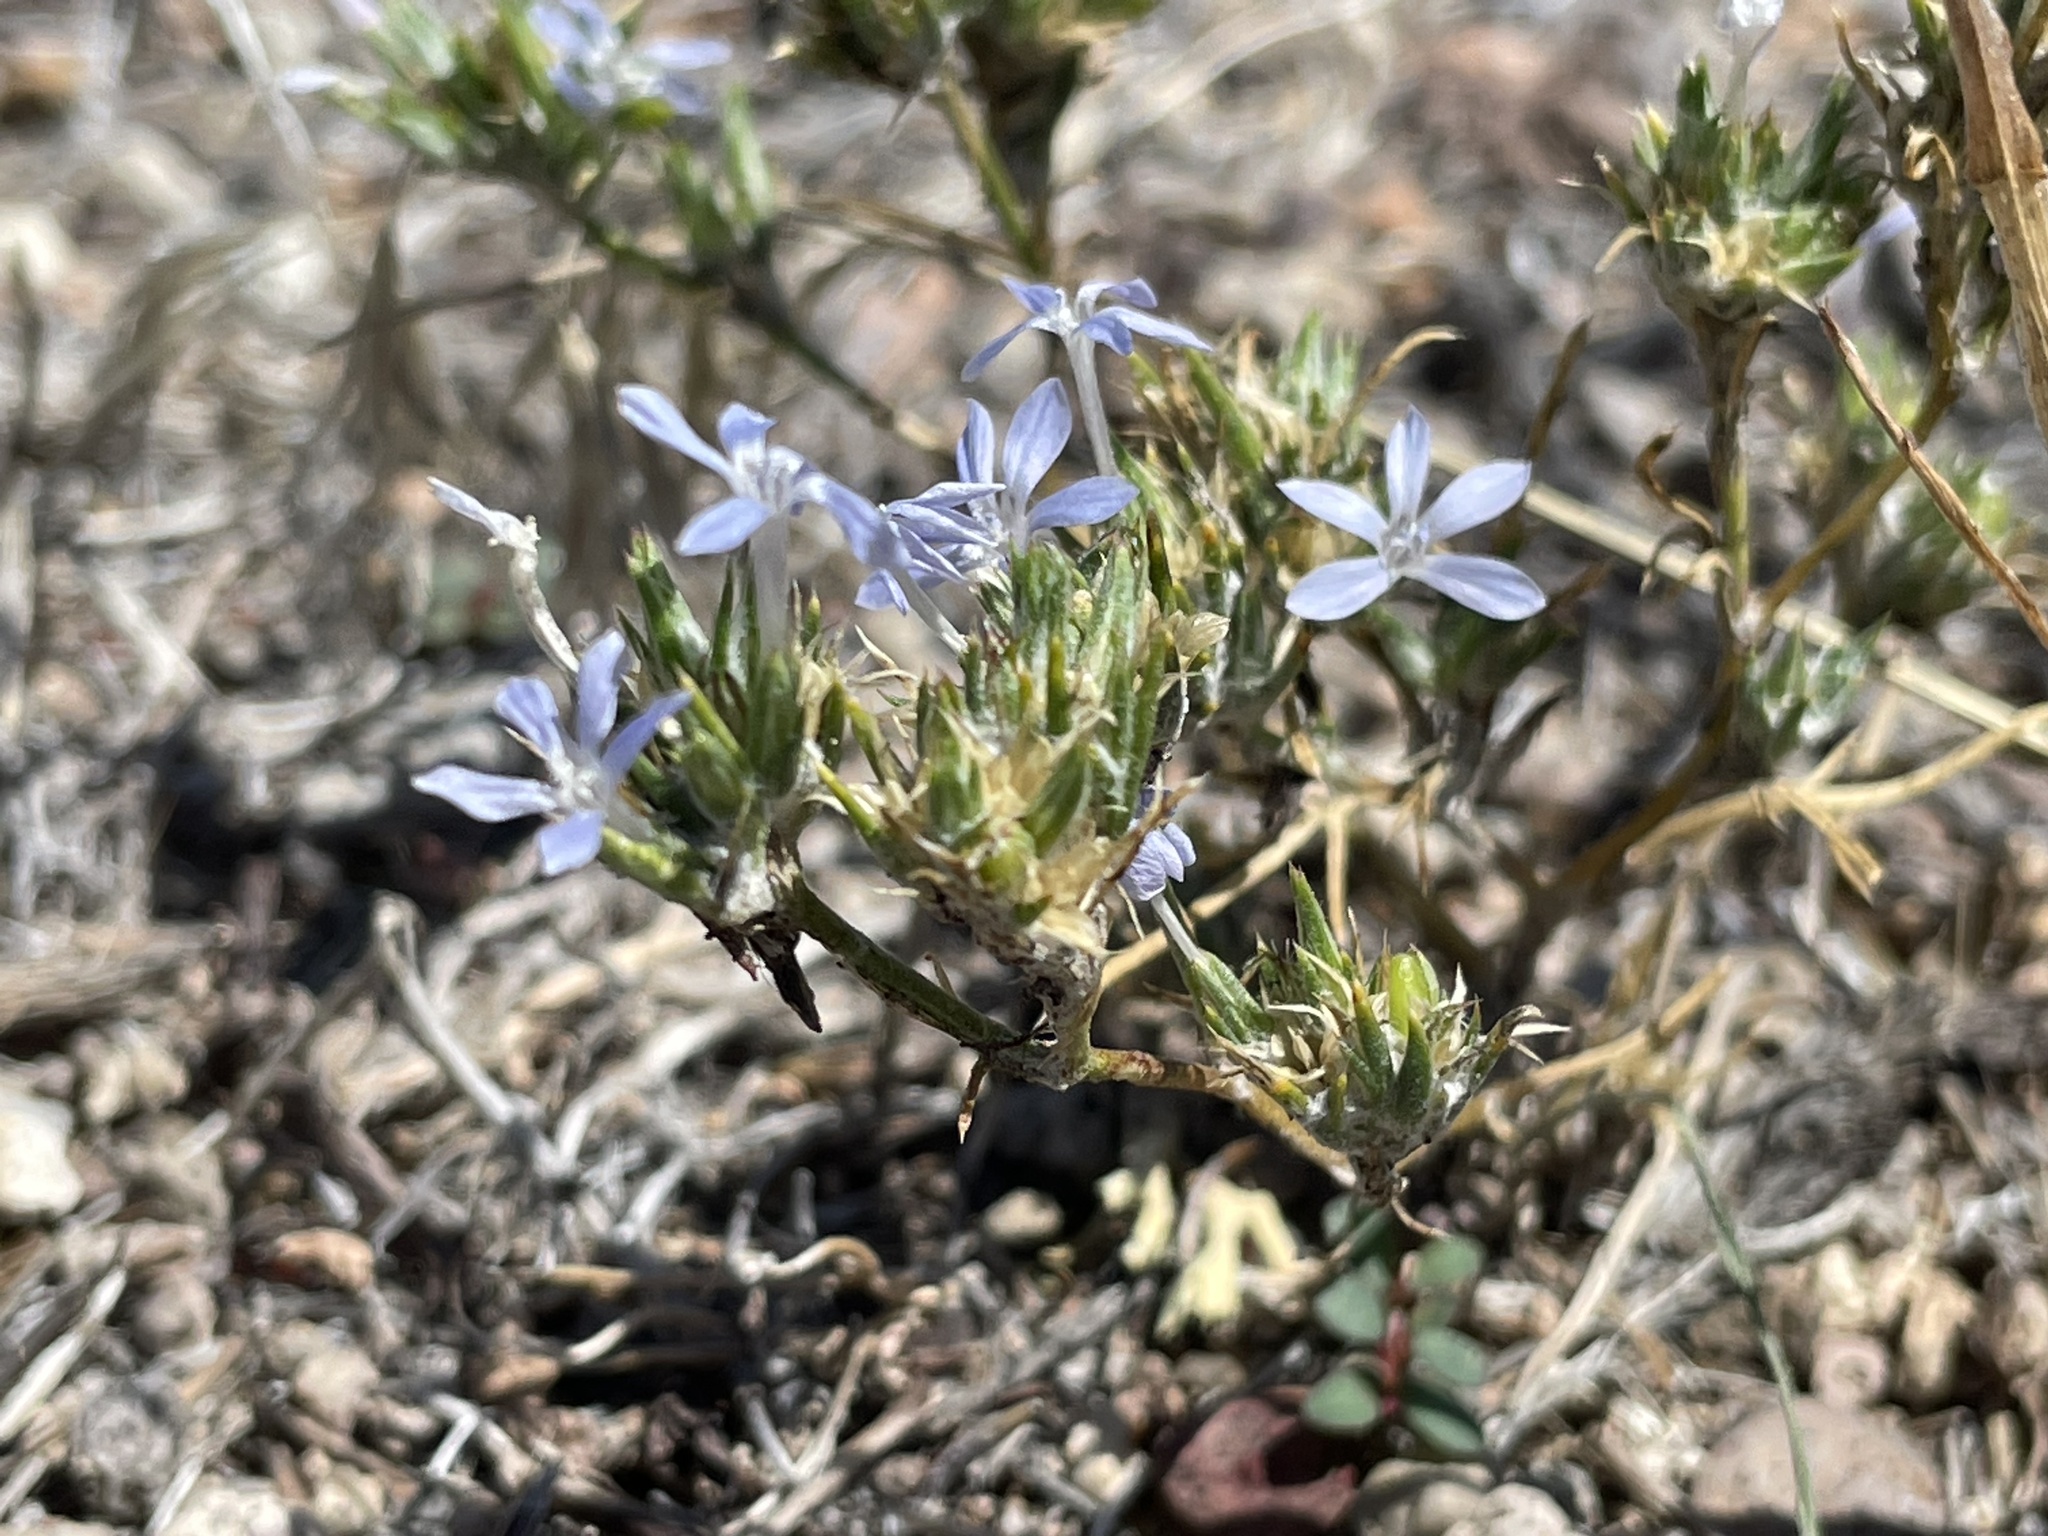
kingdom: Plantae
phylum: Tracheophyta
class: Magnoliopsida
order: Ericales
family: Polemoniaceae
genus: Eriastrum
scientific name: Eriastrum wilcoxii
